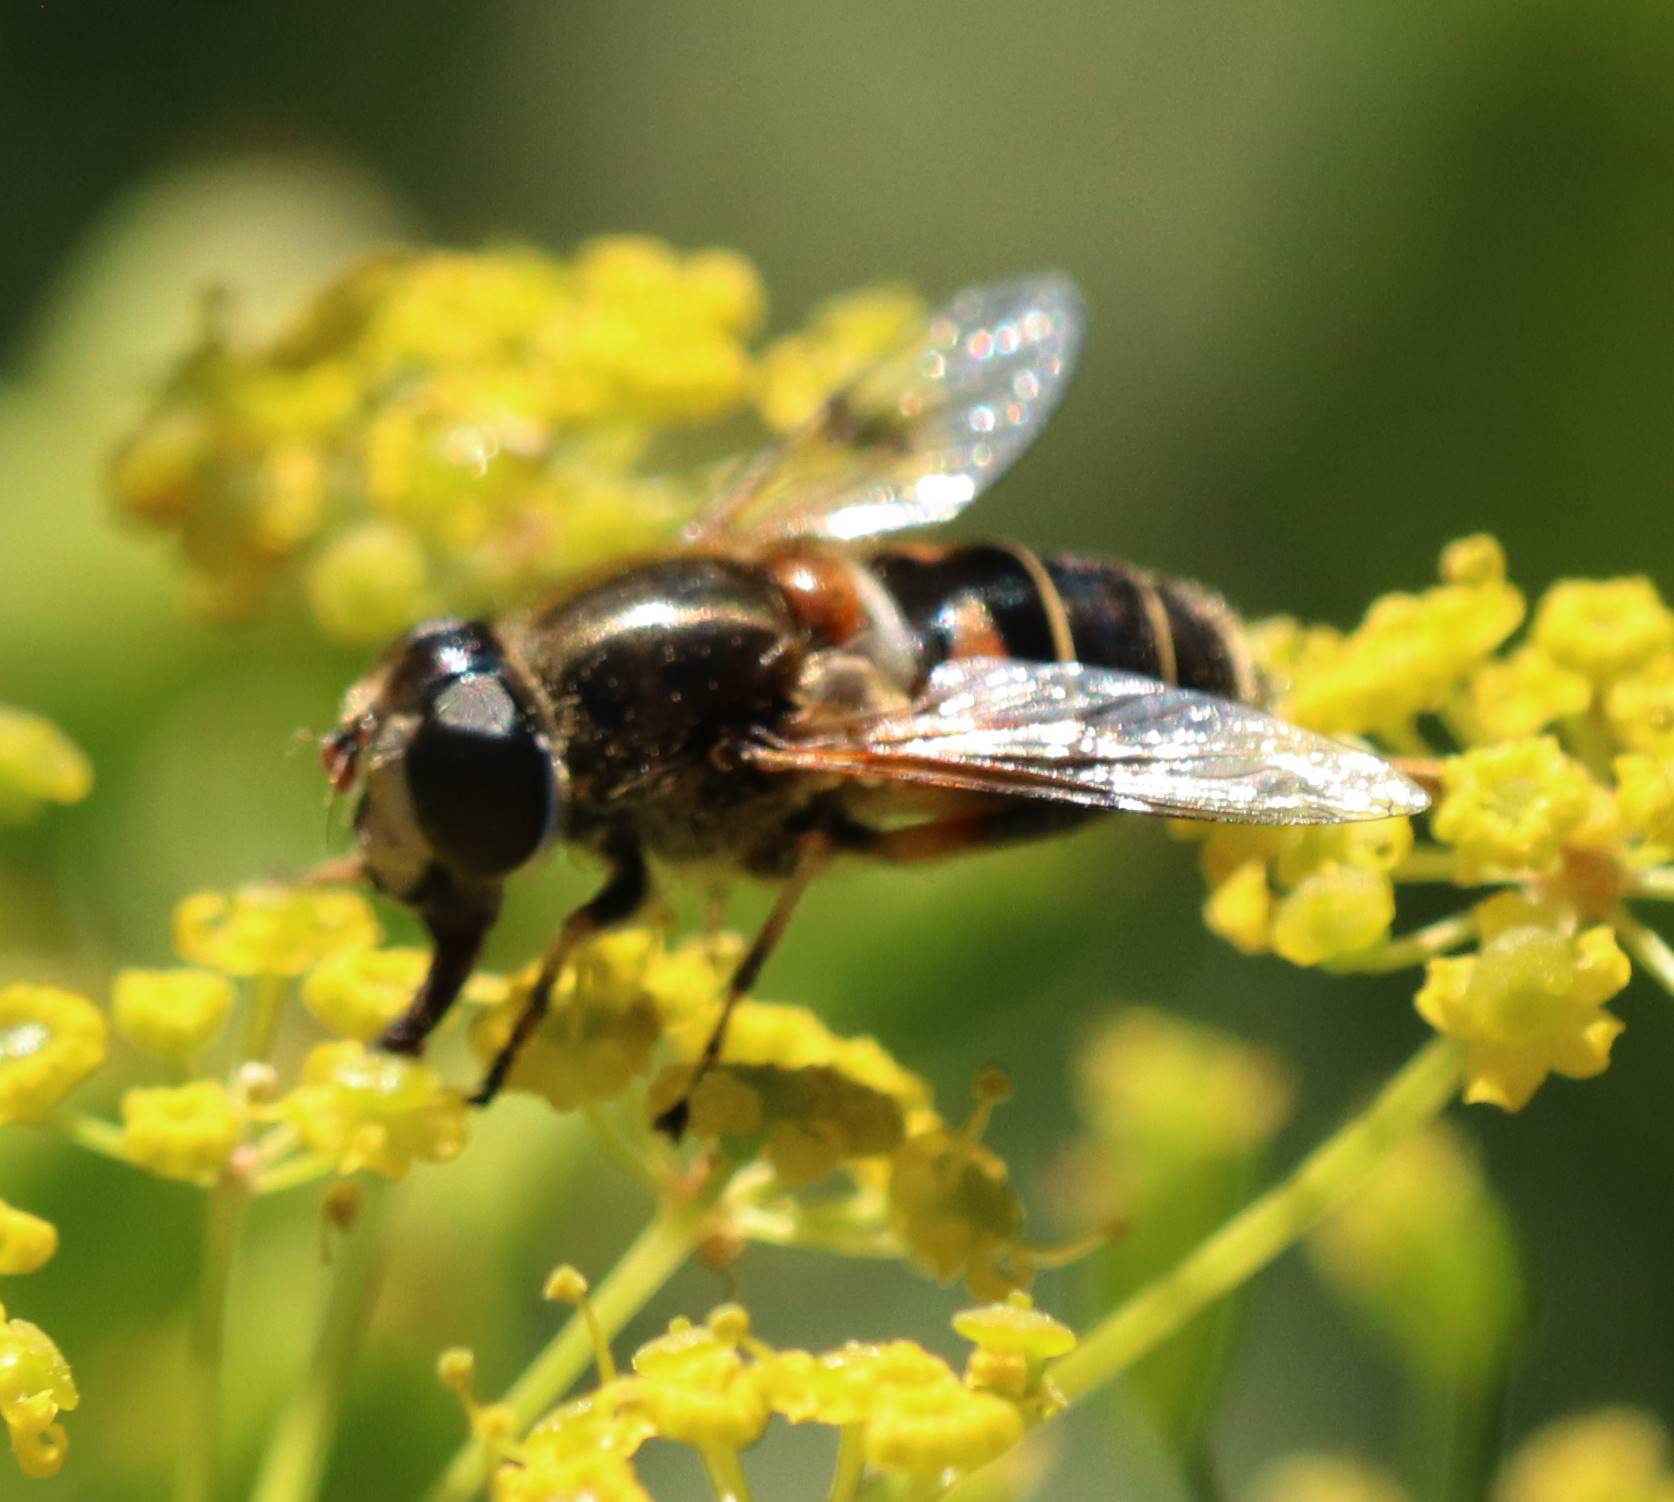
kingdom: Animalia
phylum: Arthropoda
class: Insecta
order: Diptera
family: Syrphidae
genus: Eristalis
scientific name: Eristalis obscura
